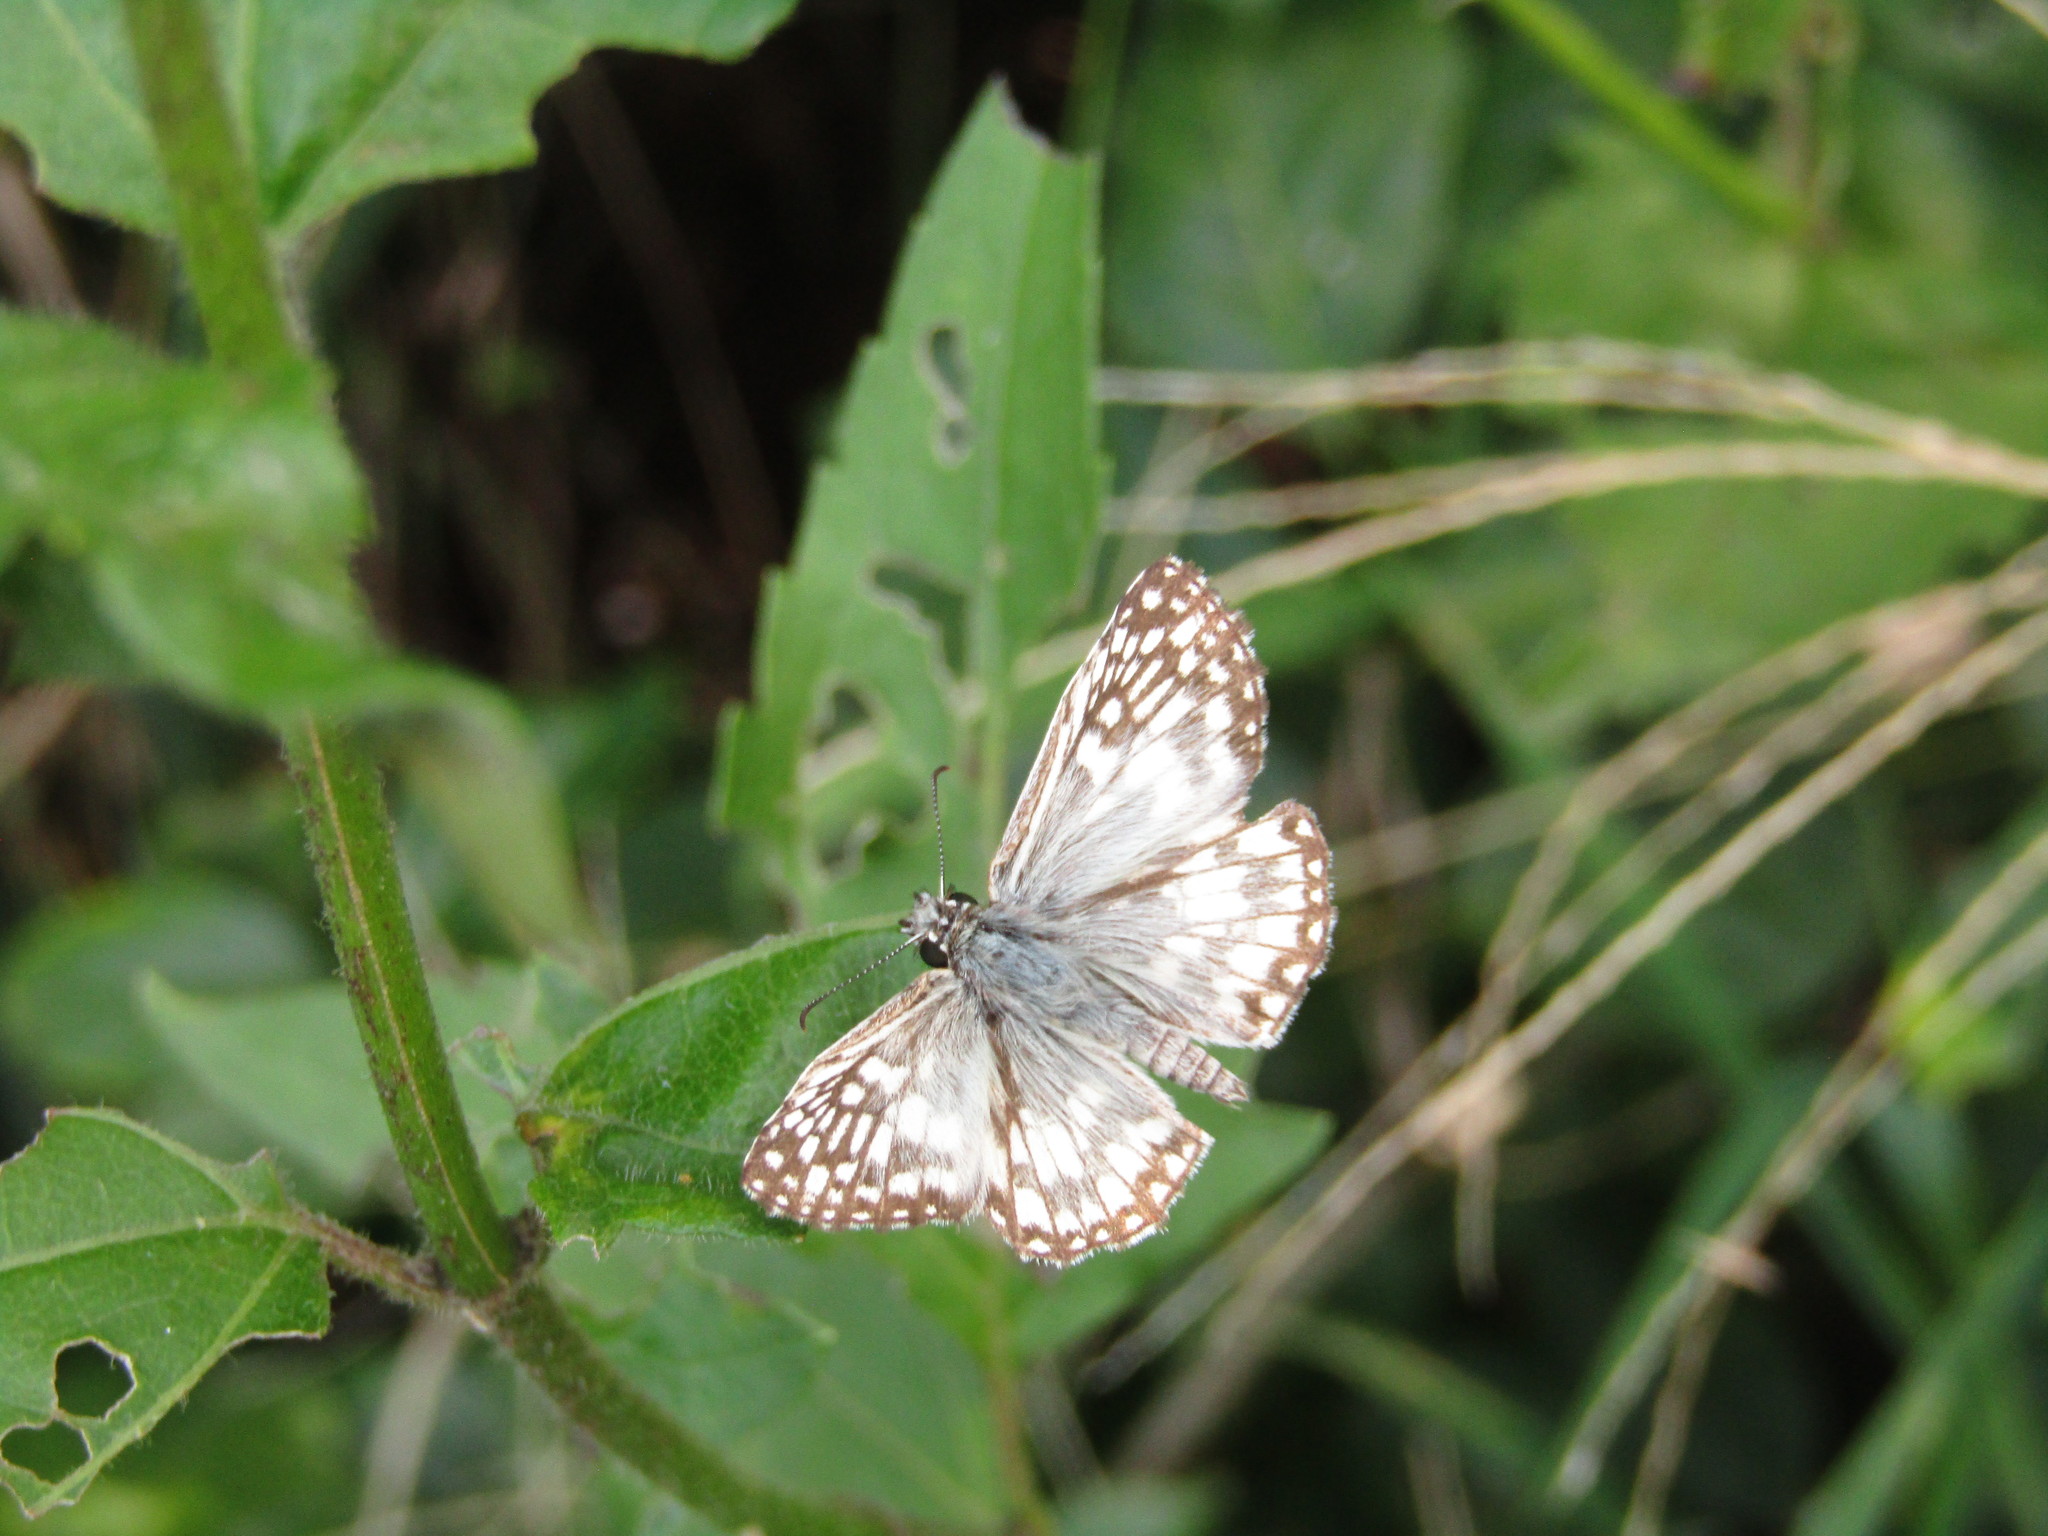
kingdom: Animalia
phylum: Arthropoda
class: Insecta
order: Lepidoptera
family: Hesperiidae
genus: Pyrgus
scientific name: Pyrgus oileus
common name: Tropical checkered-skipper
